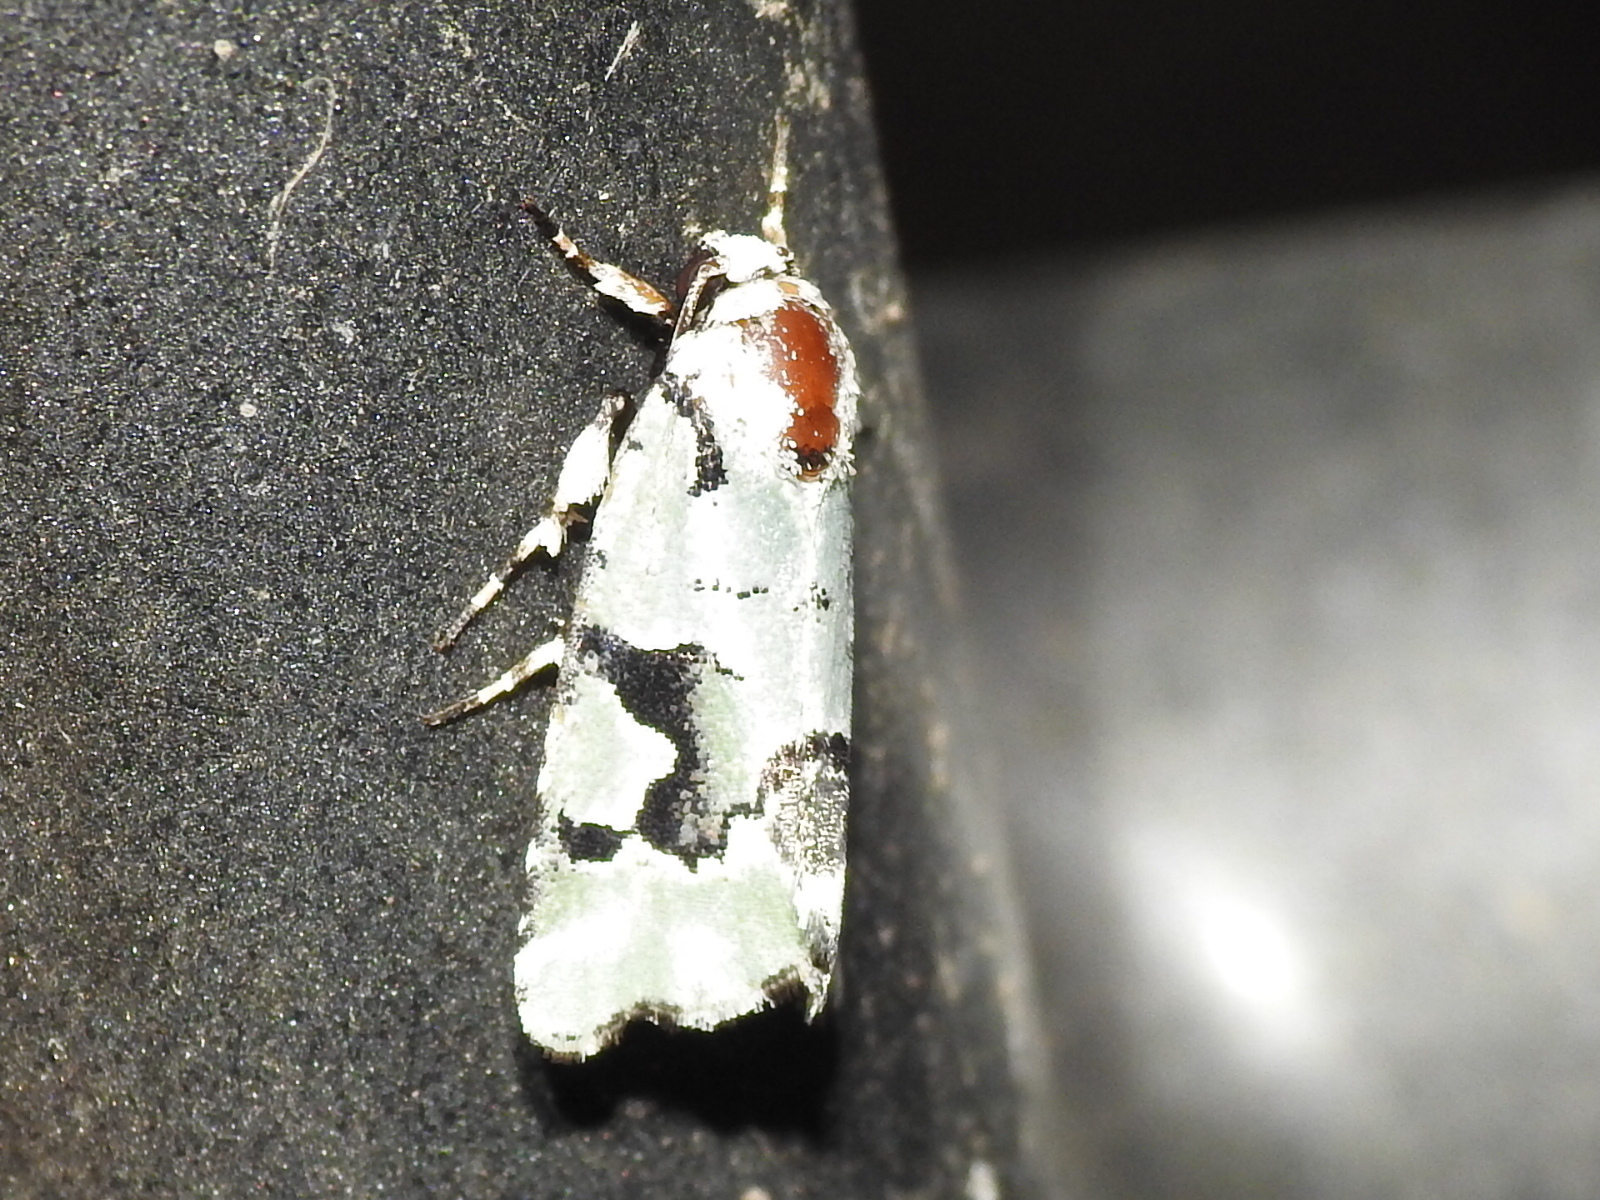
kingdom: Animalia
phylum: Arthropoda
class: Insecta
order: Lepidoptera
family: Noctuidae
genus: Emarginea
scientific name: Emarginea percara
